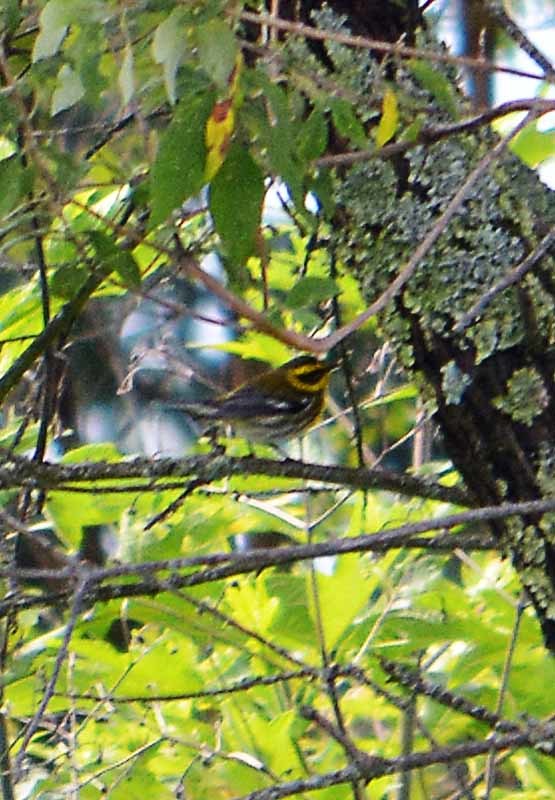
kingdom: Animalia
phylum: Chordata
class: Aves
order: Passeriformes
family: Parulidae
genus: Setophaga
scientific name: Setophaga townsendi
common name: Townsend's warbler
